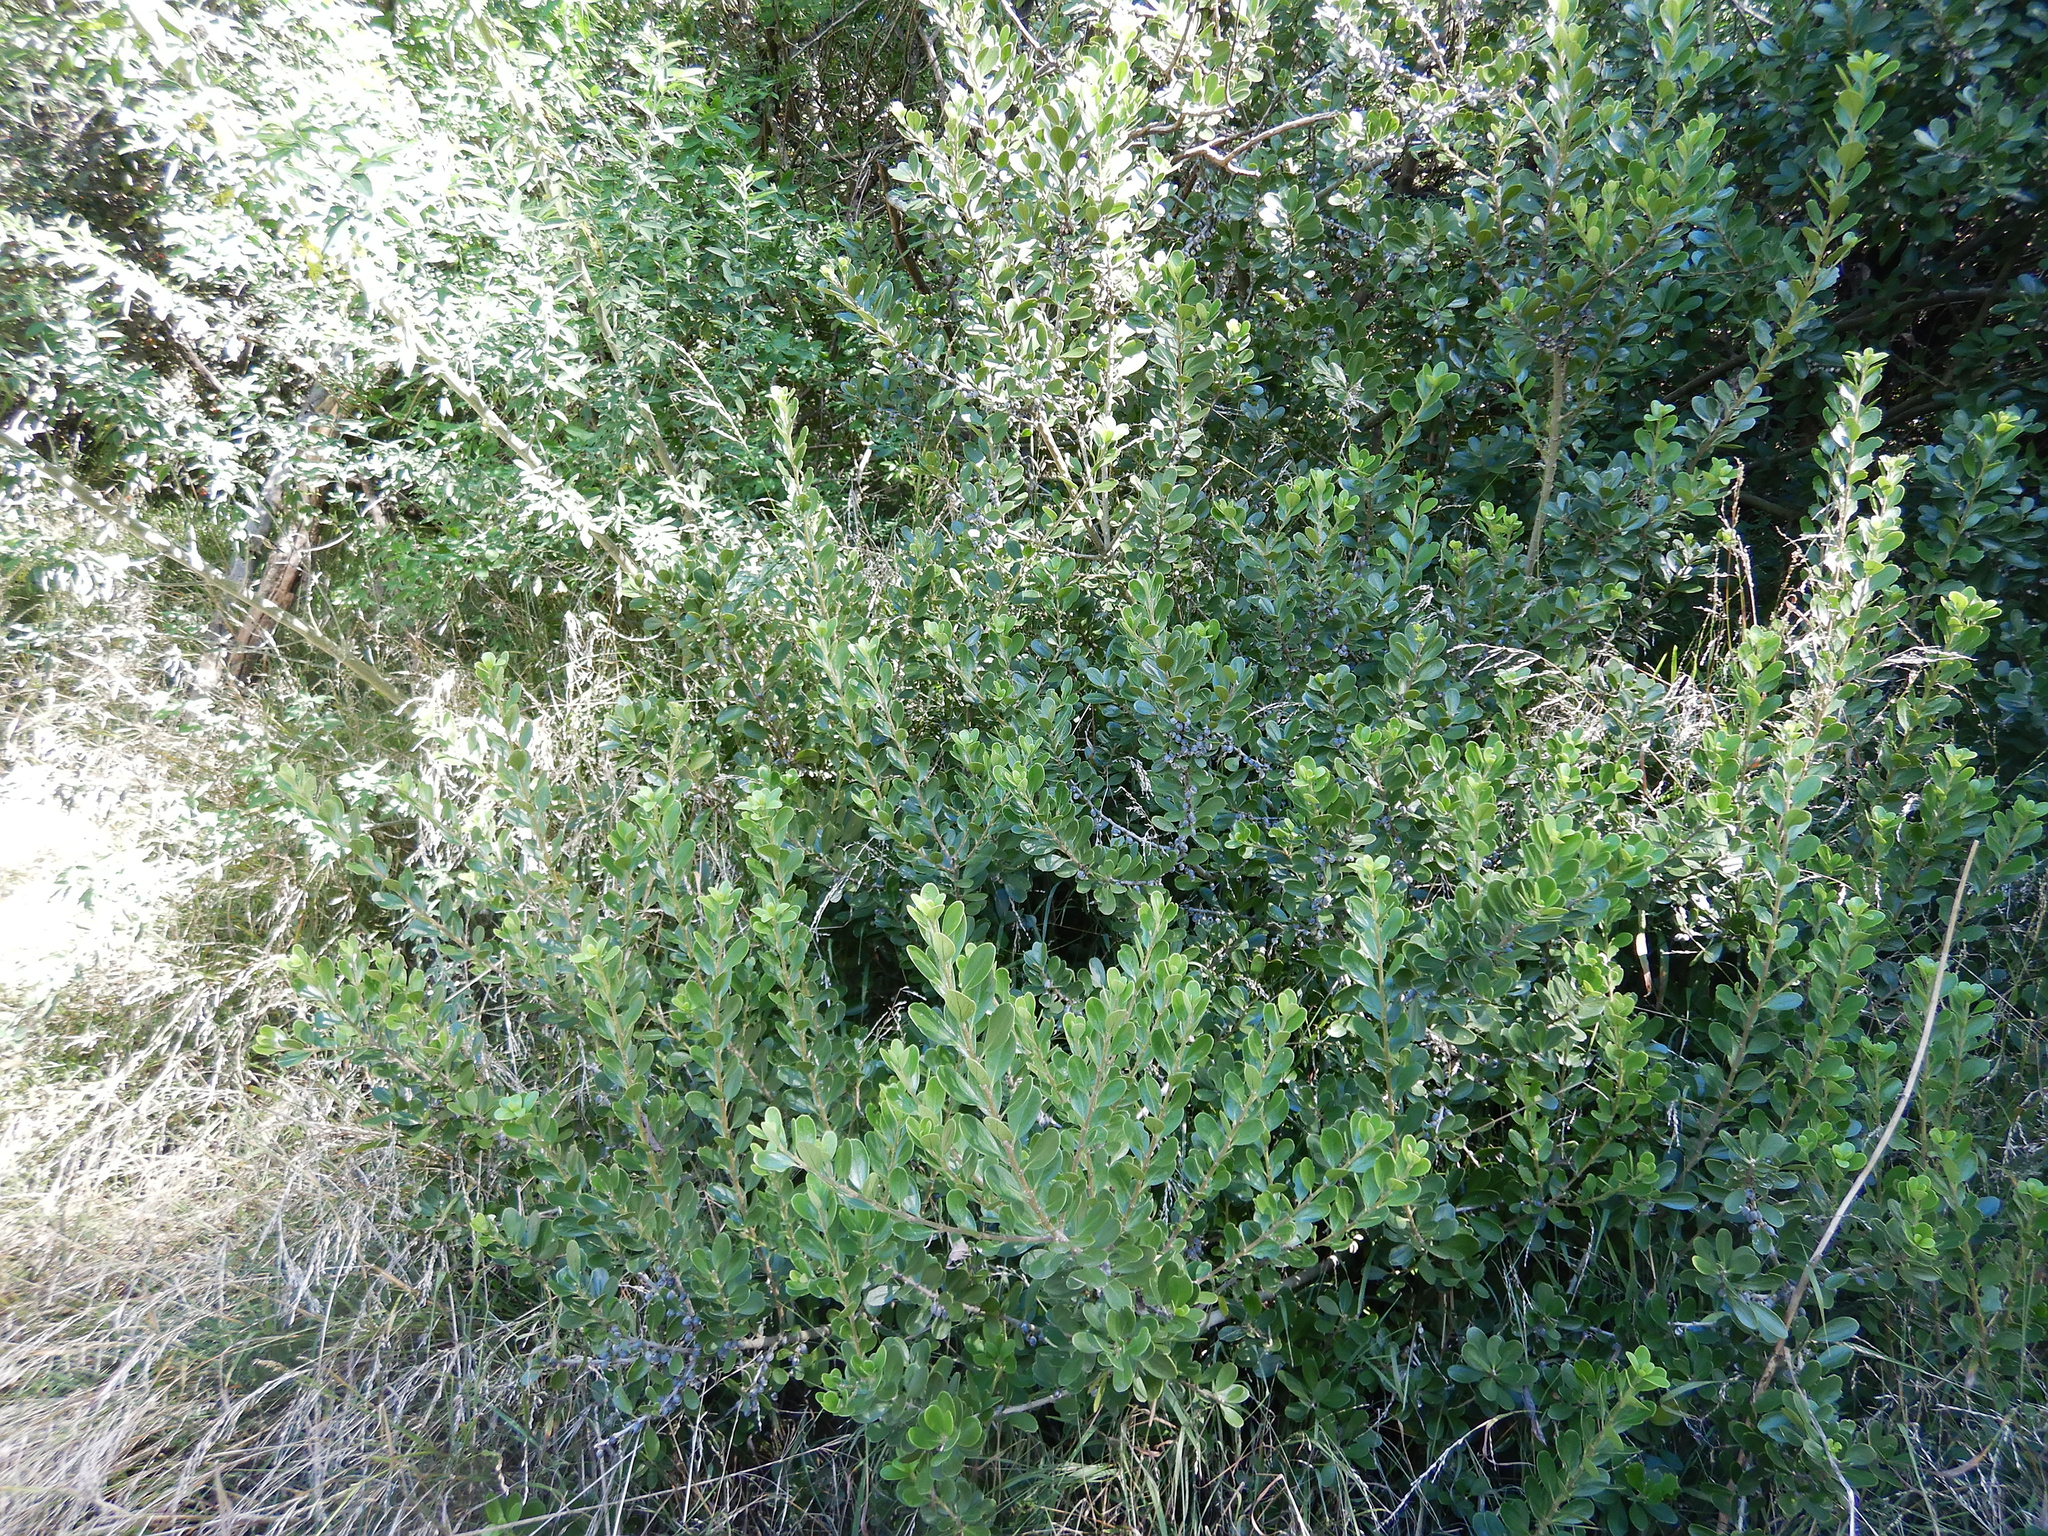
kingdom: Plantae
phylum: Tracheophyta
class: Magnoliopsida
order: Malpighiales
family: Violaceae
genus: Melicytus
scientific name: Melicytus obovatus
